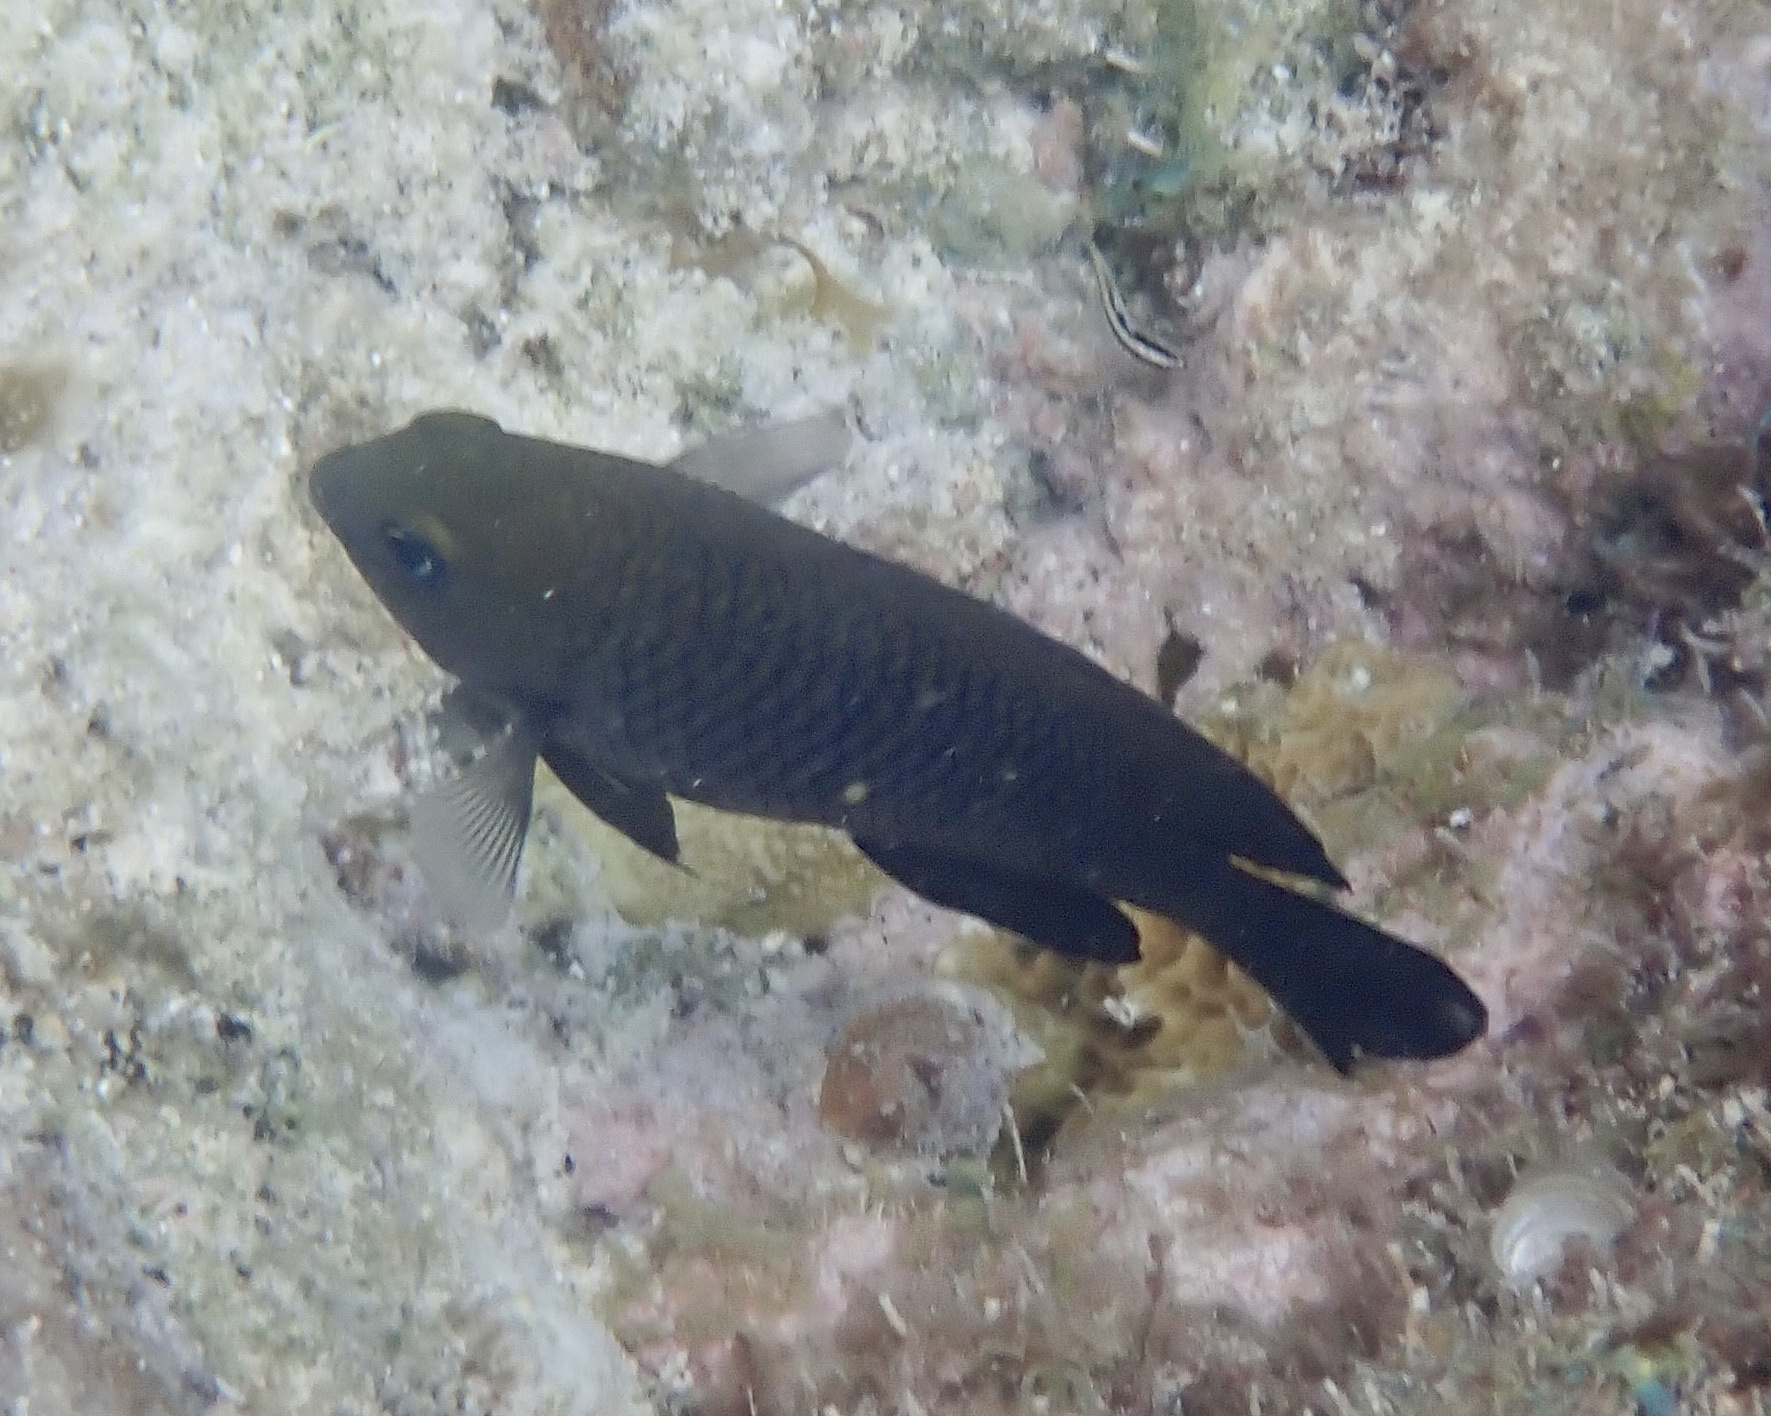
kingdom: Animalia
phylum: Chordata
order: Perciformes
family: Pomacentridae
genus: Stegastes
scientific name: Stegastes planifrons
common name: Threespot damselfish
